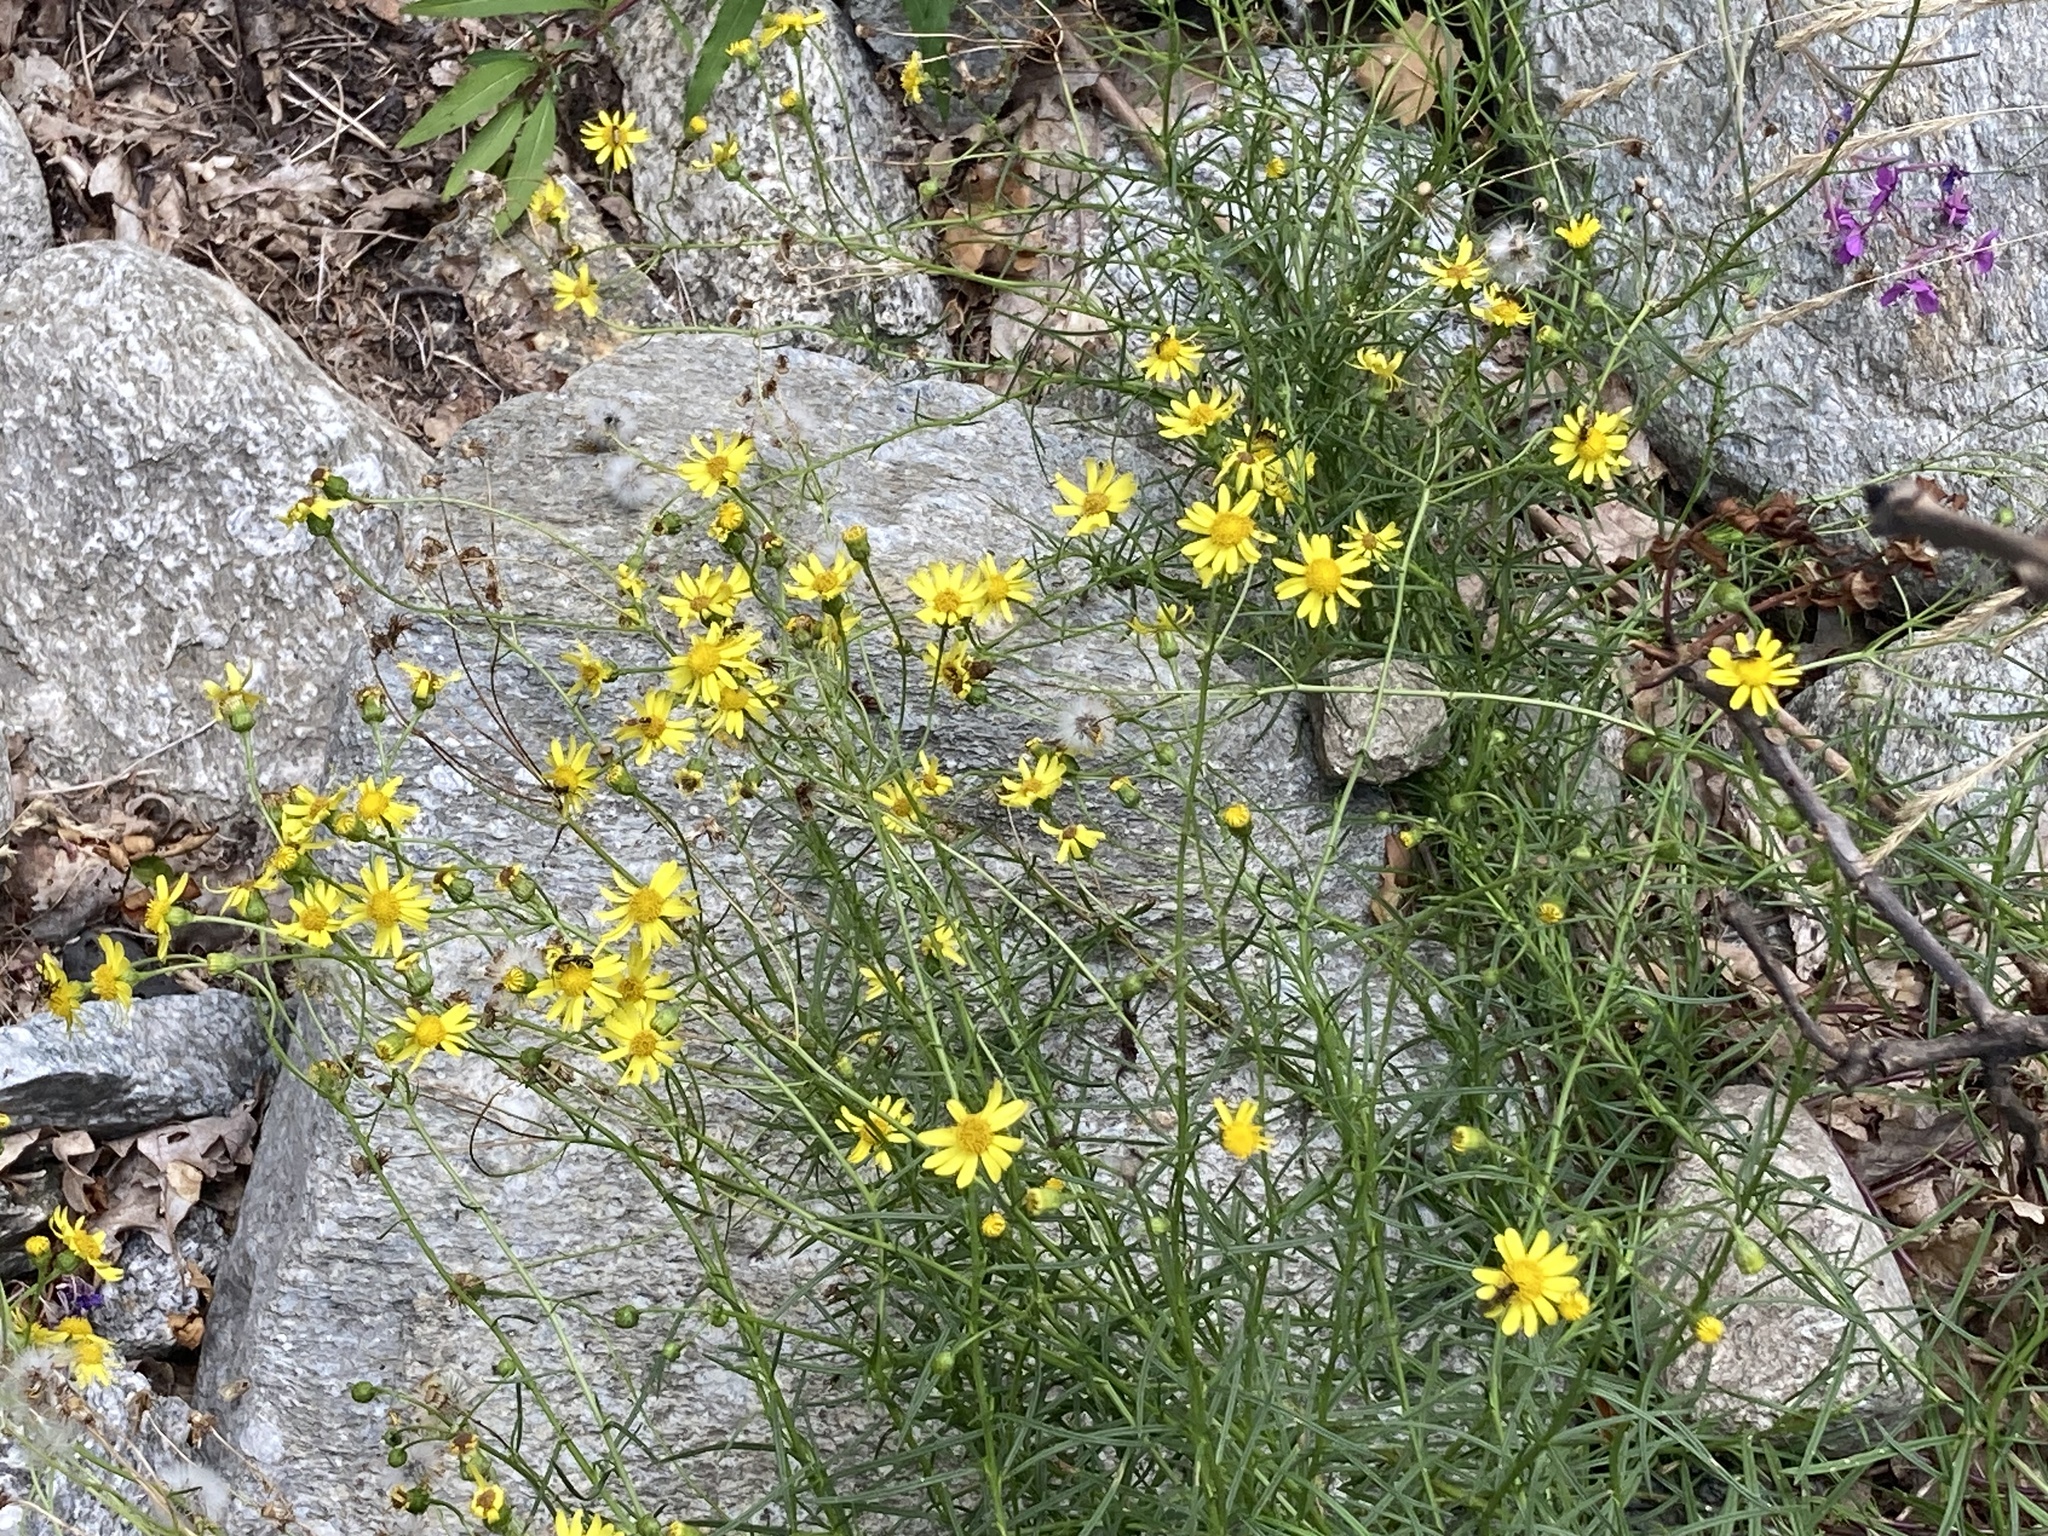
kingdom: Plantae
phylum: Tracheophyta
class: Magnoliopsida
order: Asterales
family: Asteraceae
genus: Senecio
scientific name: Senecio inaequidens
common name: Narrow-leaved ragwort
